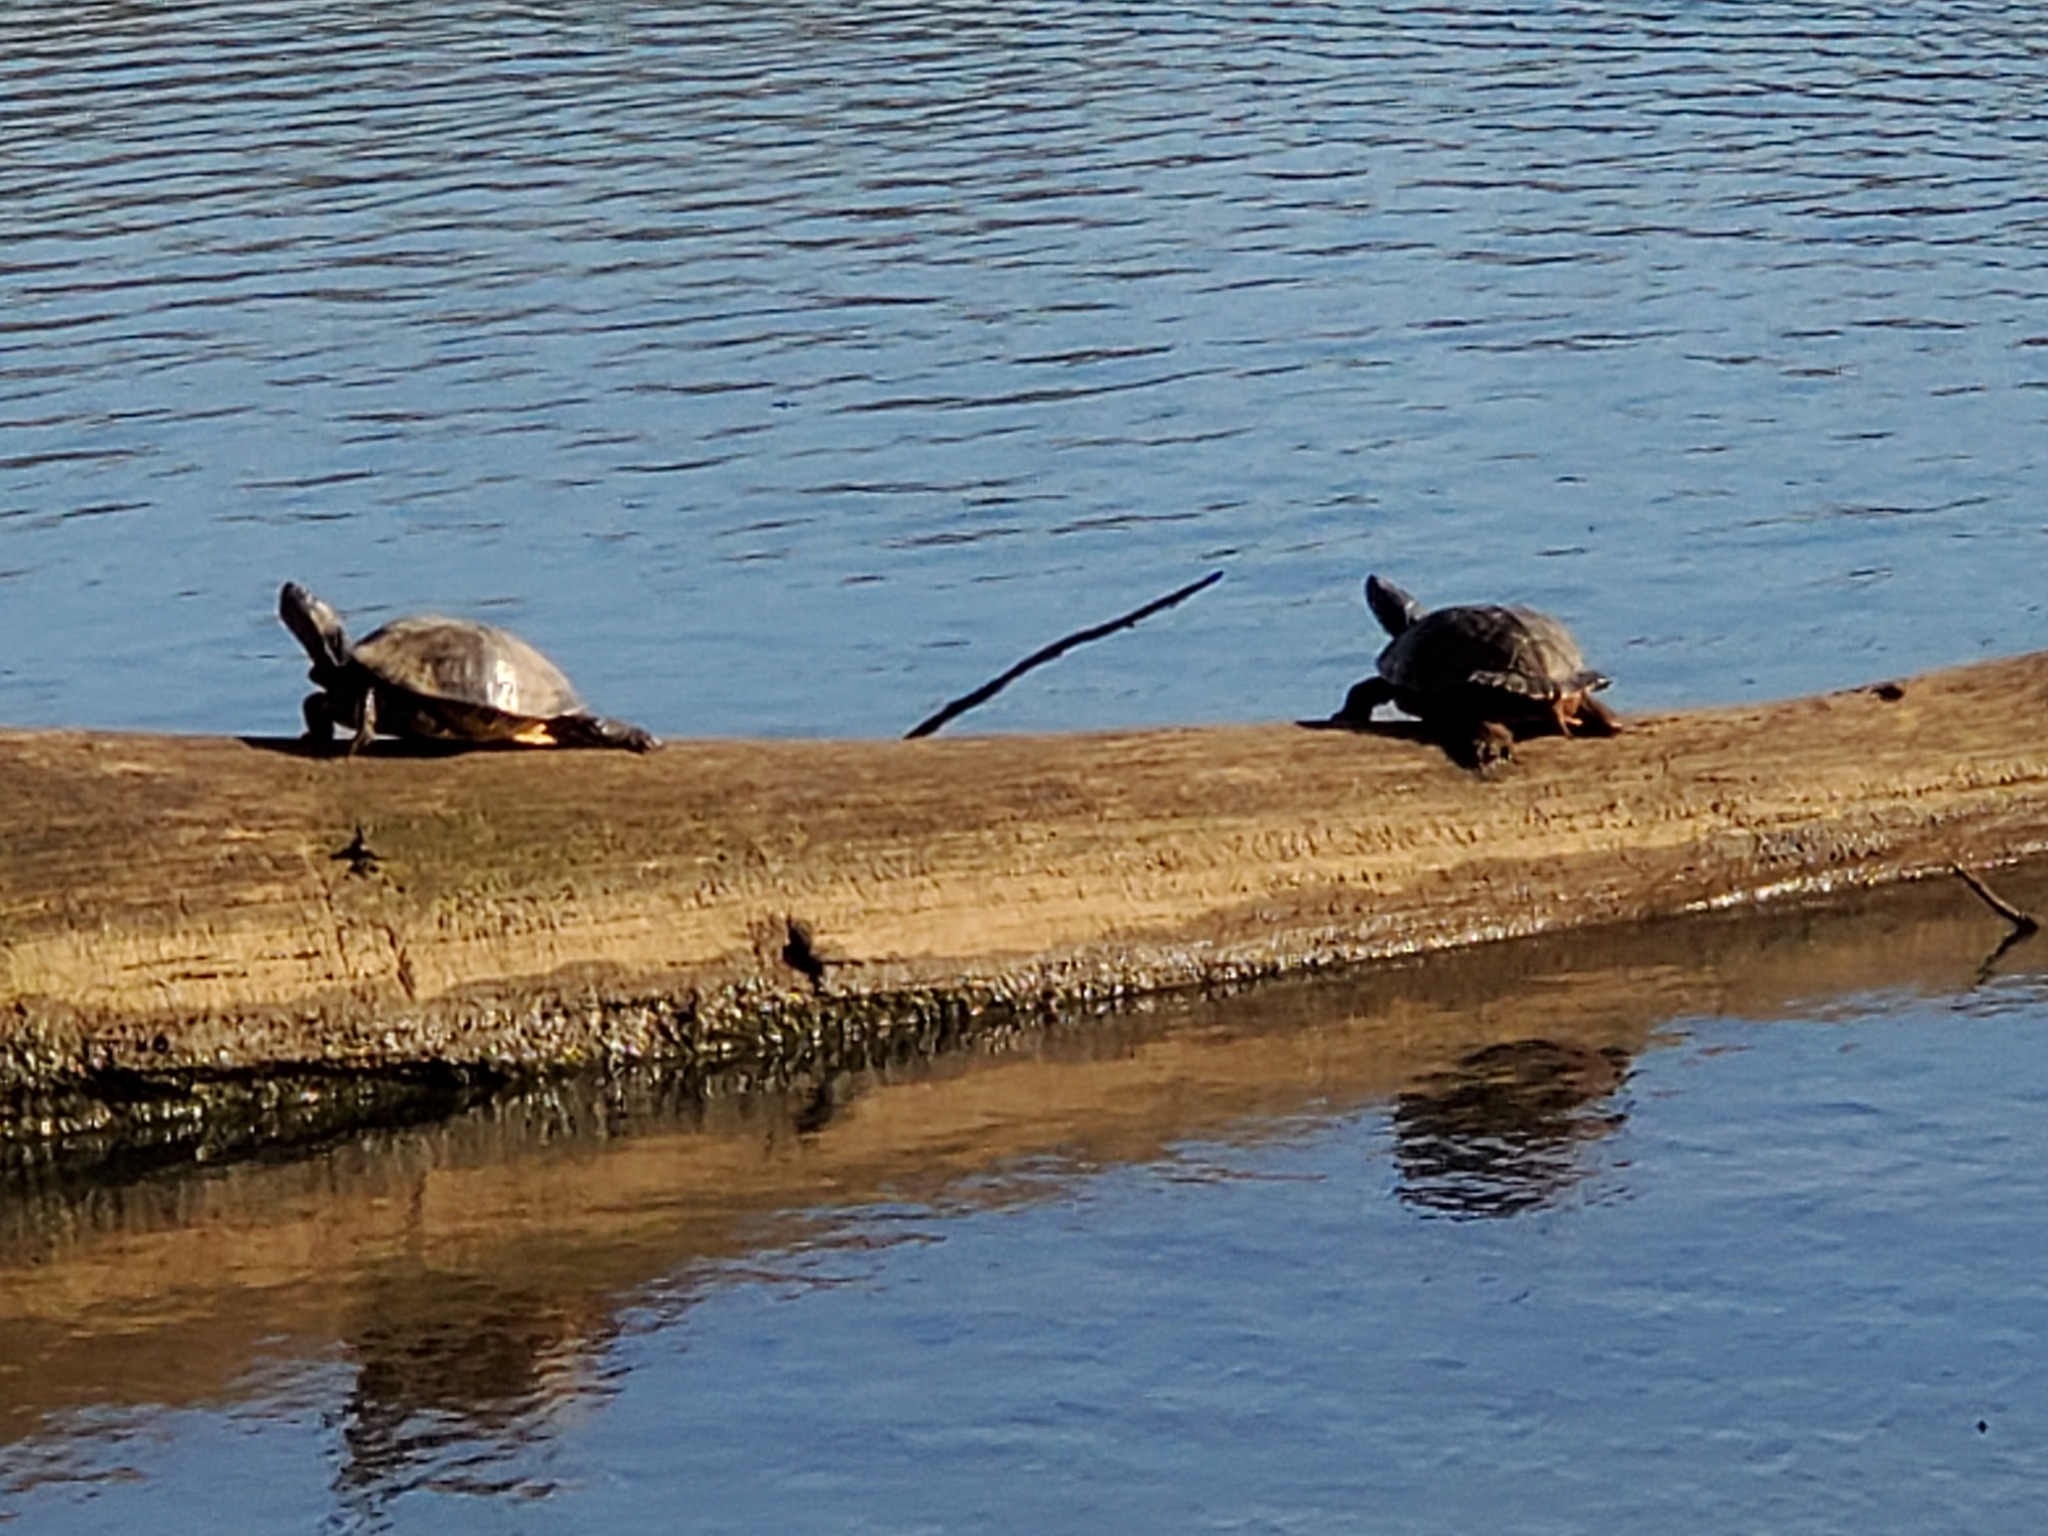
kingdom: Animalia
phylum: Chordata
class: Testudines
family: Emydidae
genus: Trachemys
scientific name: Trachemys scripta
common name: Slider
